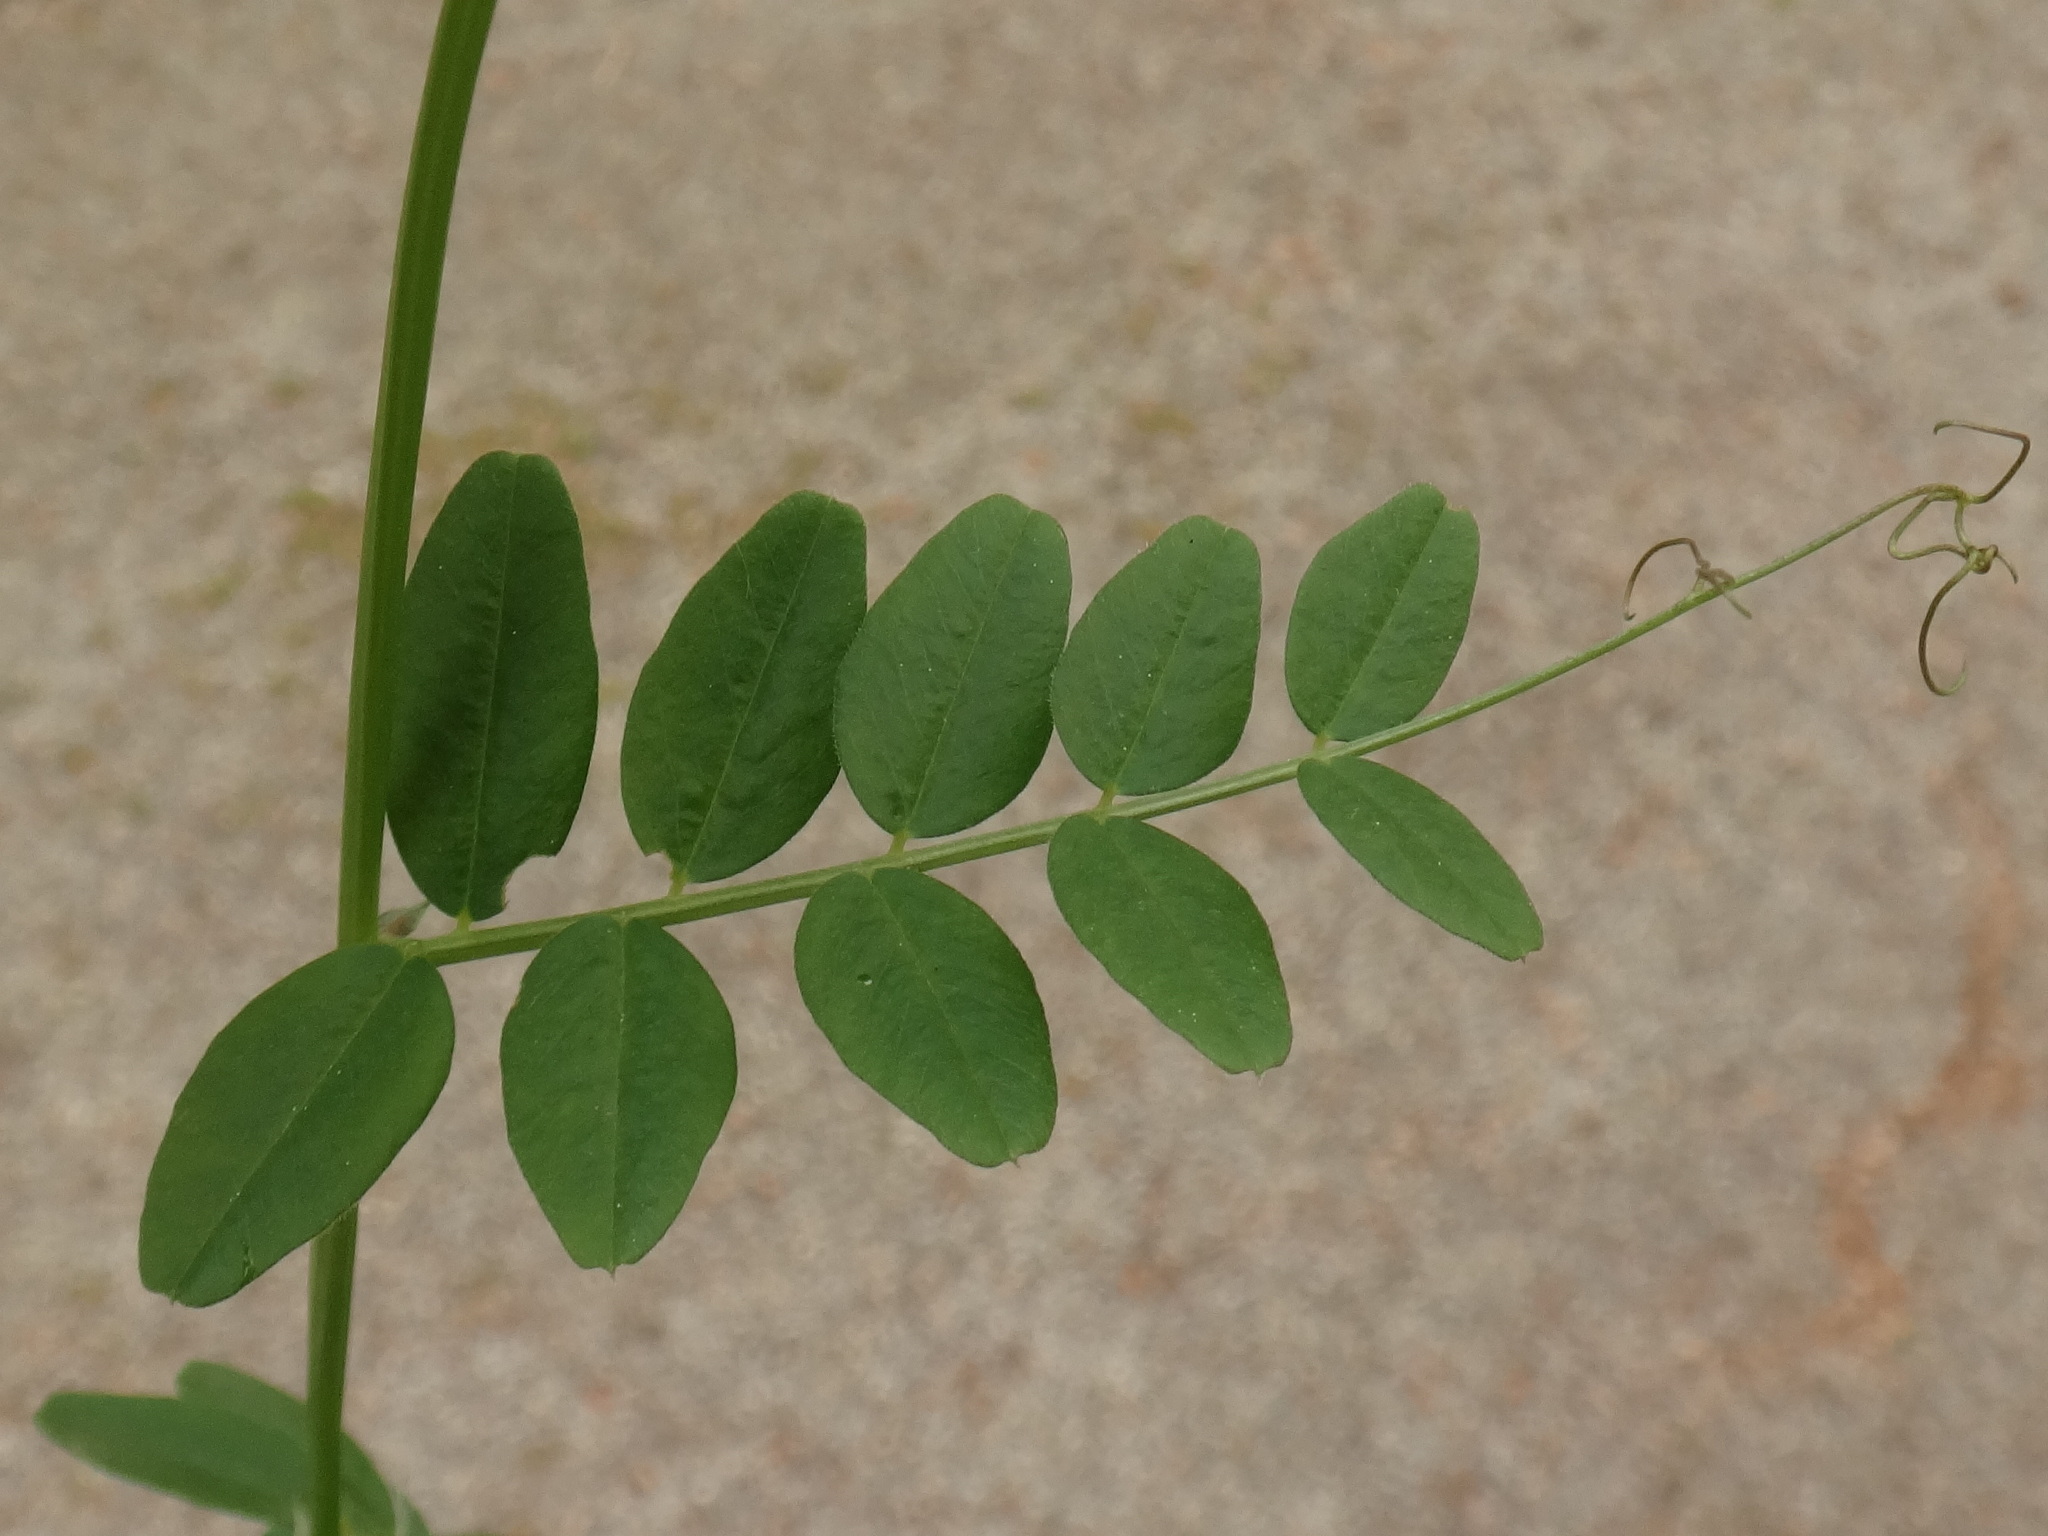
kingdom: Plantae
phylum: Tracheophyta
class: Magnoliopsida
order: Fabales
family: Fabaceae
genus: Vicia
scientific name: Vicia sepium
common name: Bush vetch
